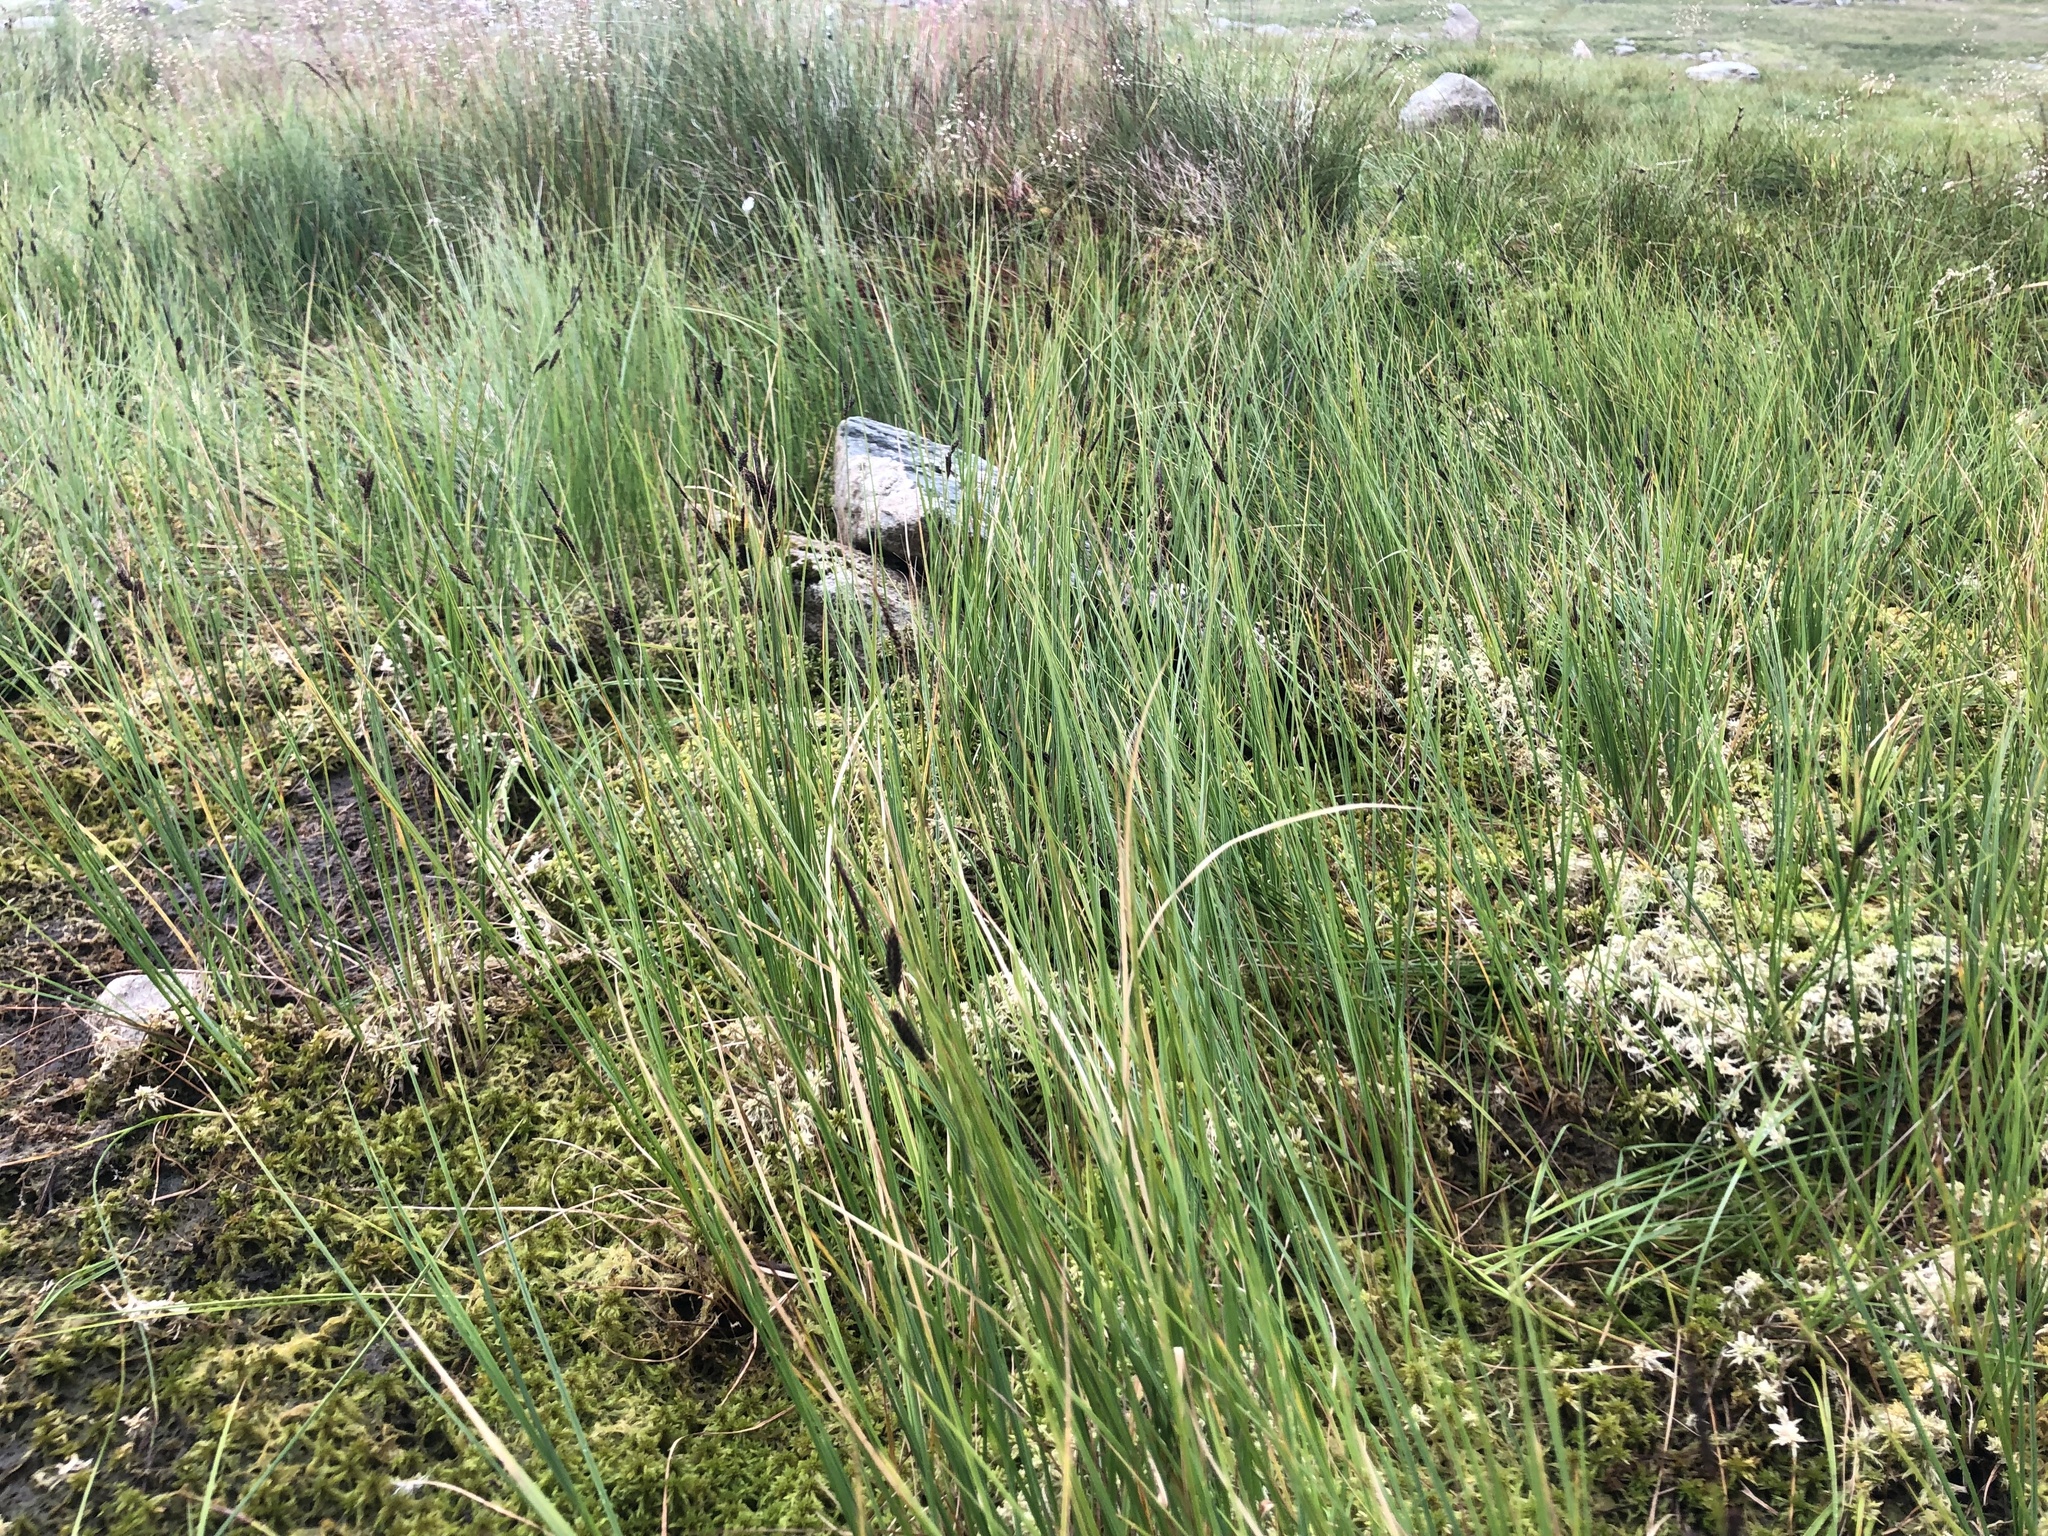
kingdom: Plantae
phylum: Tracheophyta
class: Liliopsida
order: Poales
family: Cyperaceae
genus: Carex
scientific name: Carex nigra
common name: Common sedge
